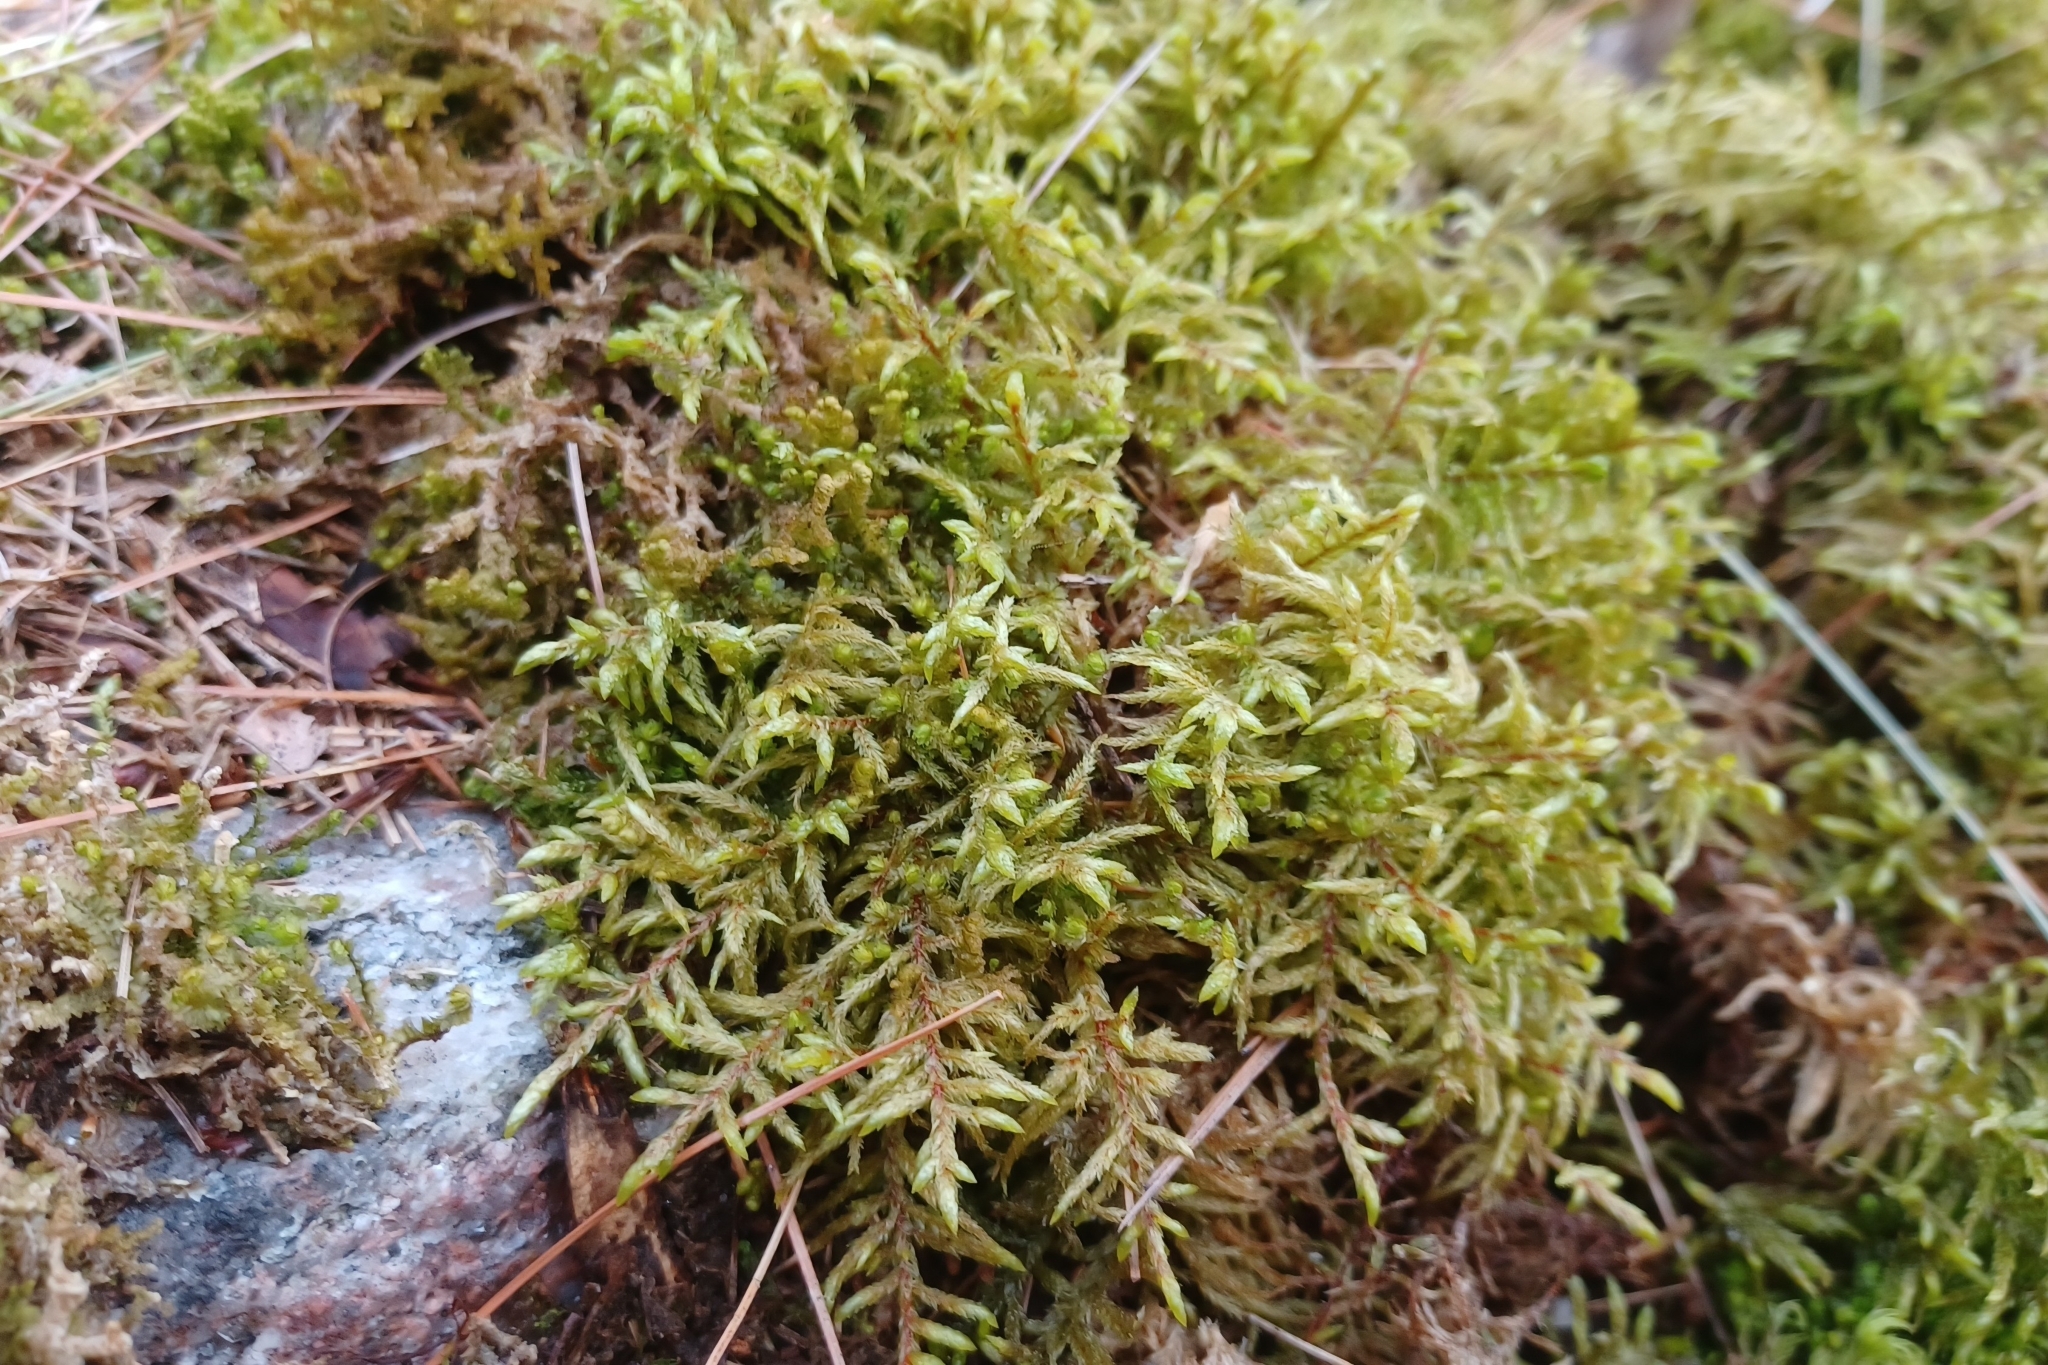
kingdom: Plantae
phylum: Bryophyta
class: Bryopsida
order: Hypnales
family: Hylocomiaceae
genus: Pleurozium
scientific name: Pleurozium schreberi
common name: Red-stemmed feather moss
